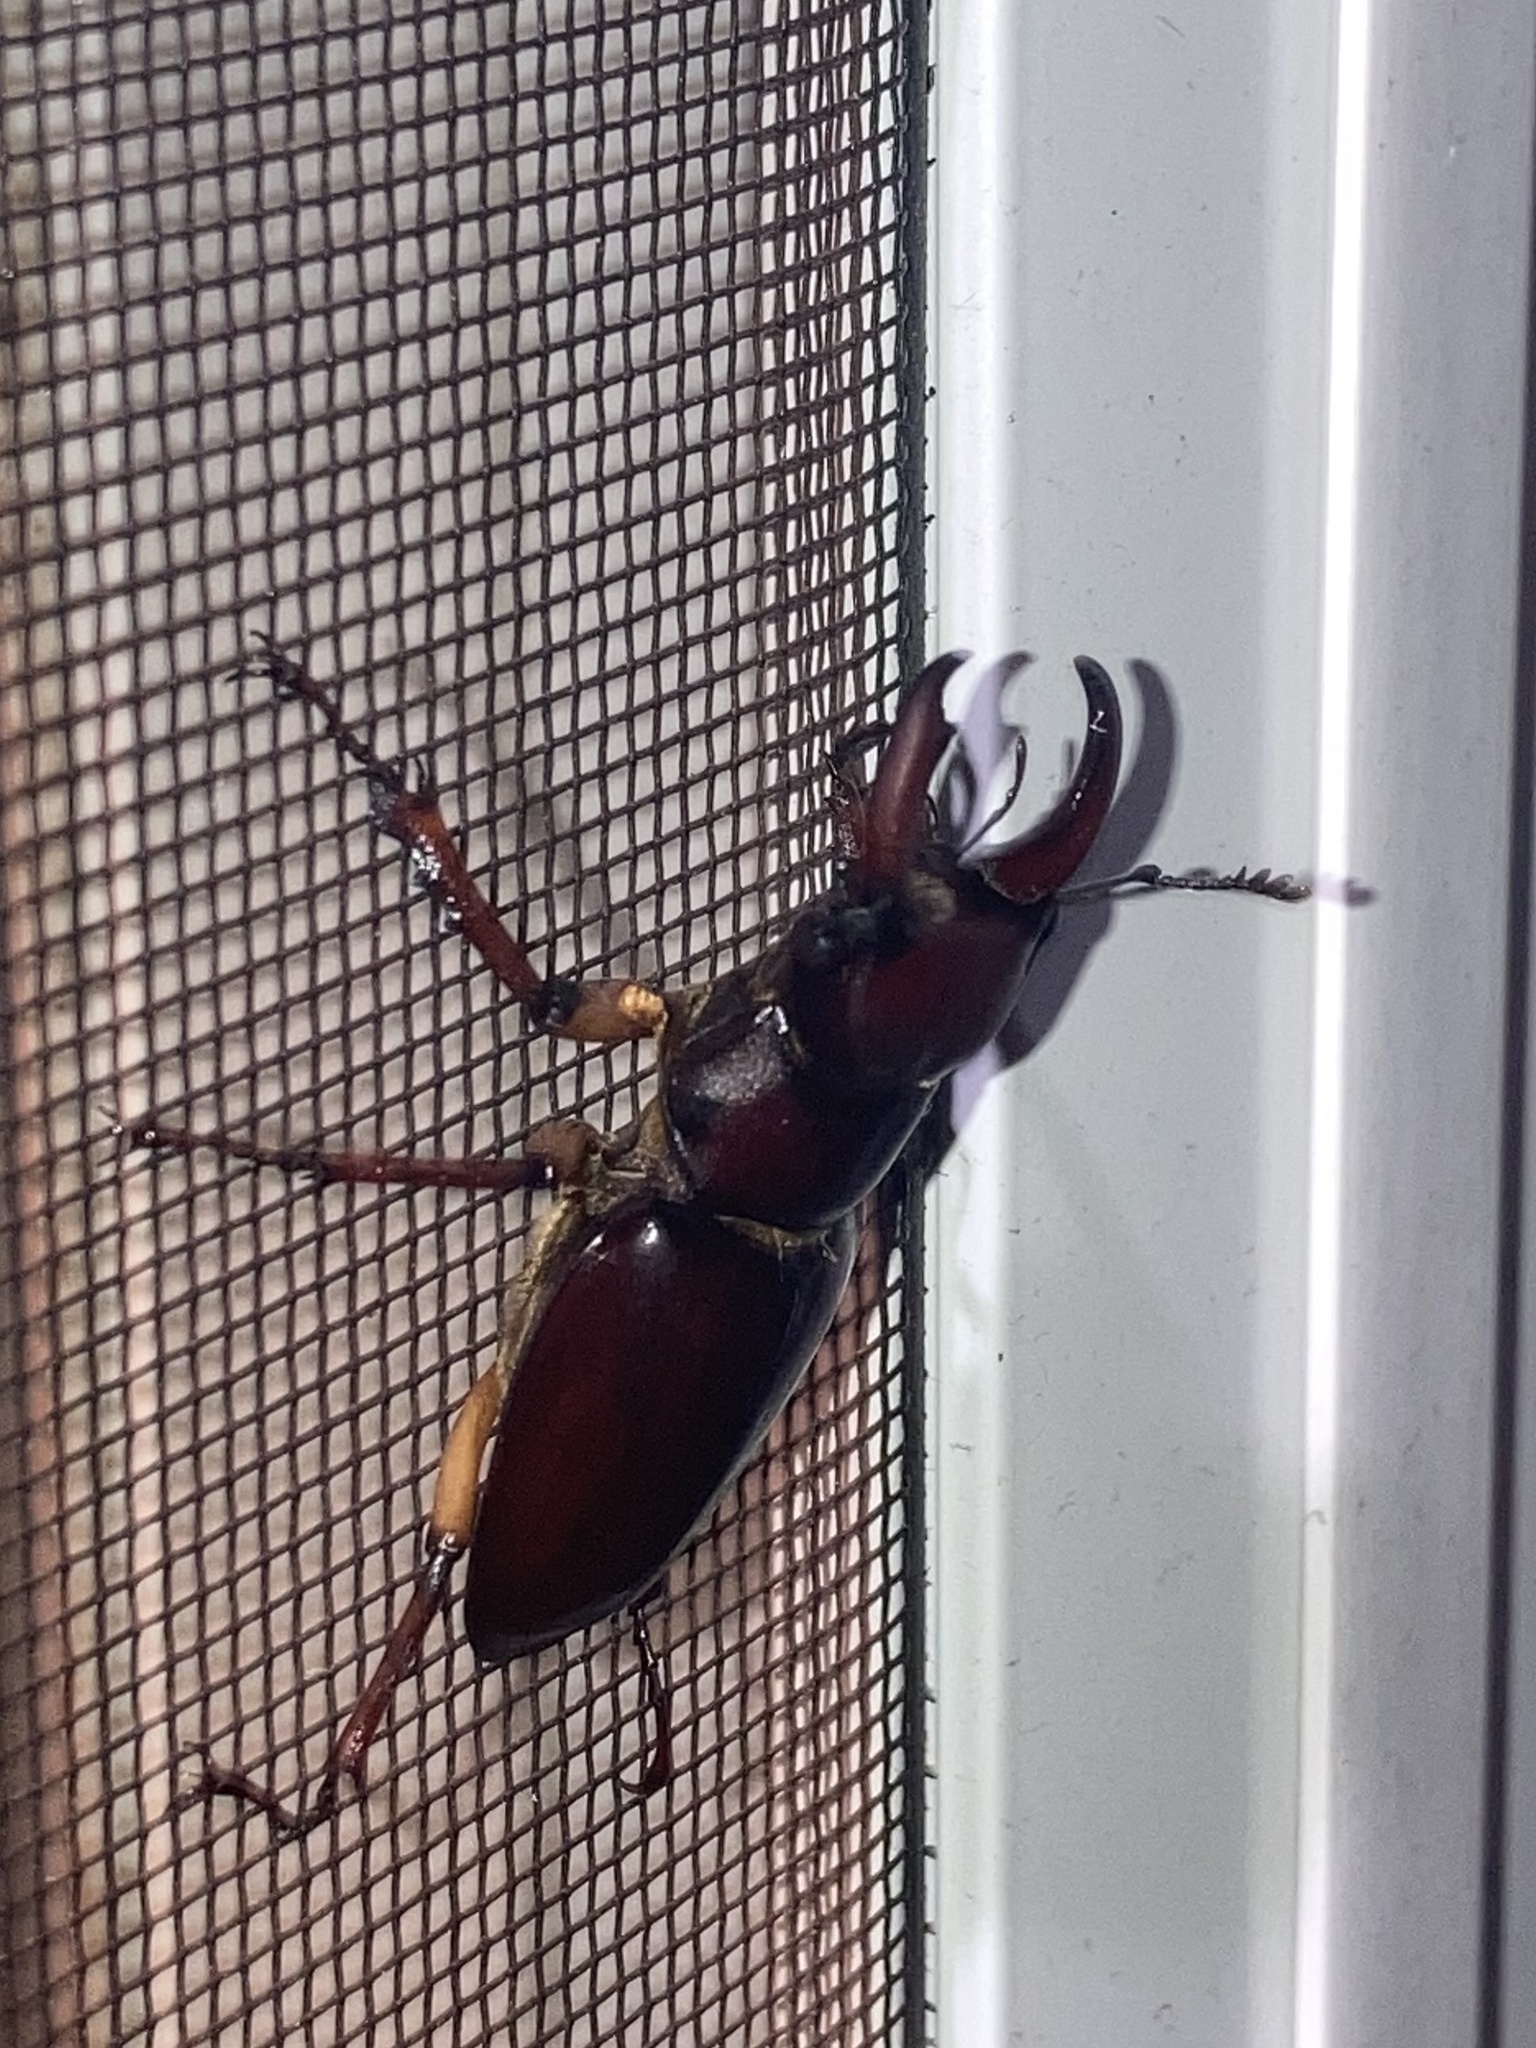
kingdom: Animalia
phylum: Arthropoda
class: Insecta
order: Coleoptera
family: Lucanidae
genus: Lucanus
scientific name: Lucanus capreolus
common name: Stag beetle
